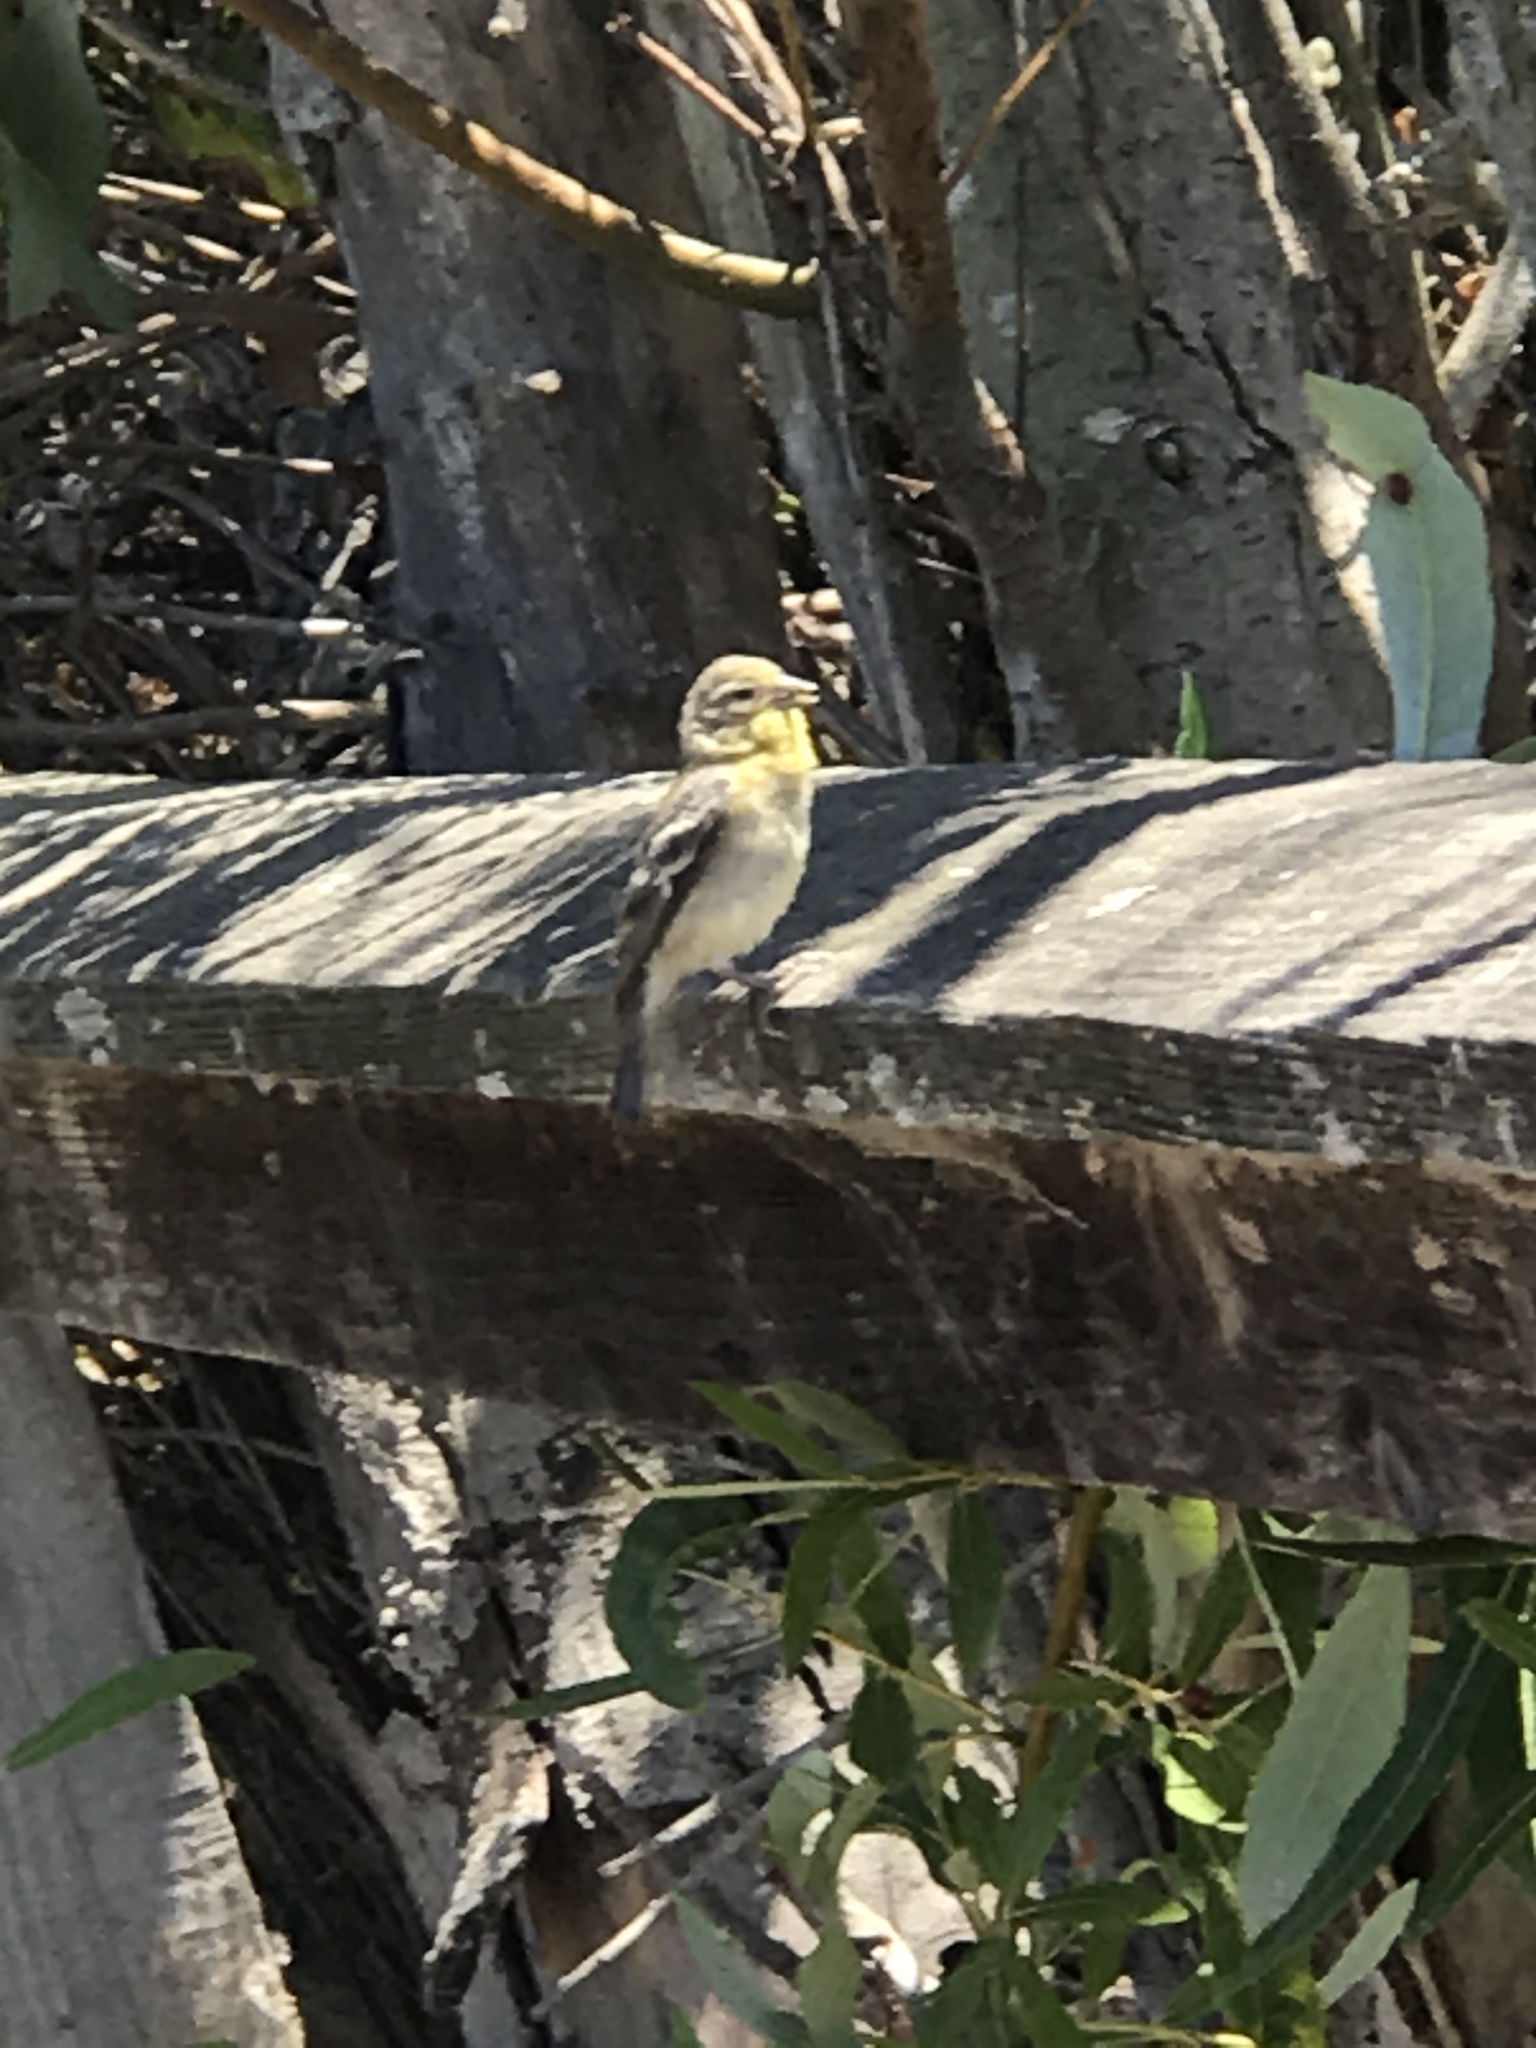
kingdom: Animalia
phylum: Chordata
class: Aves
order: Passeriformes
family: Fringillidae
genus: Spinus
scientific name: Spinus psaltria
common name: Lesser goldfinch
